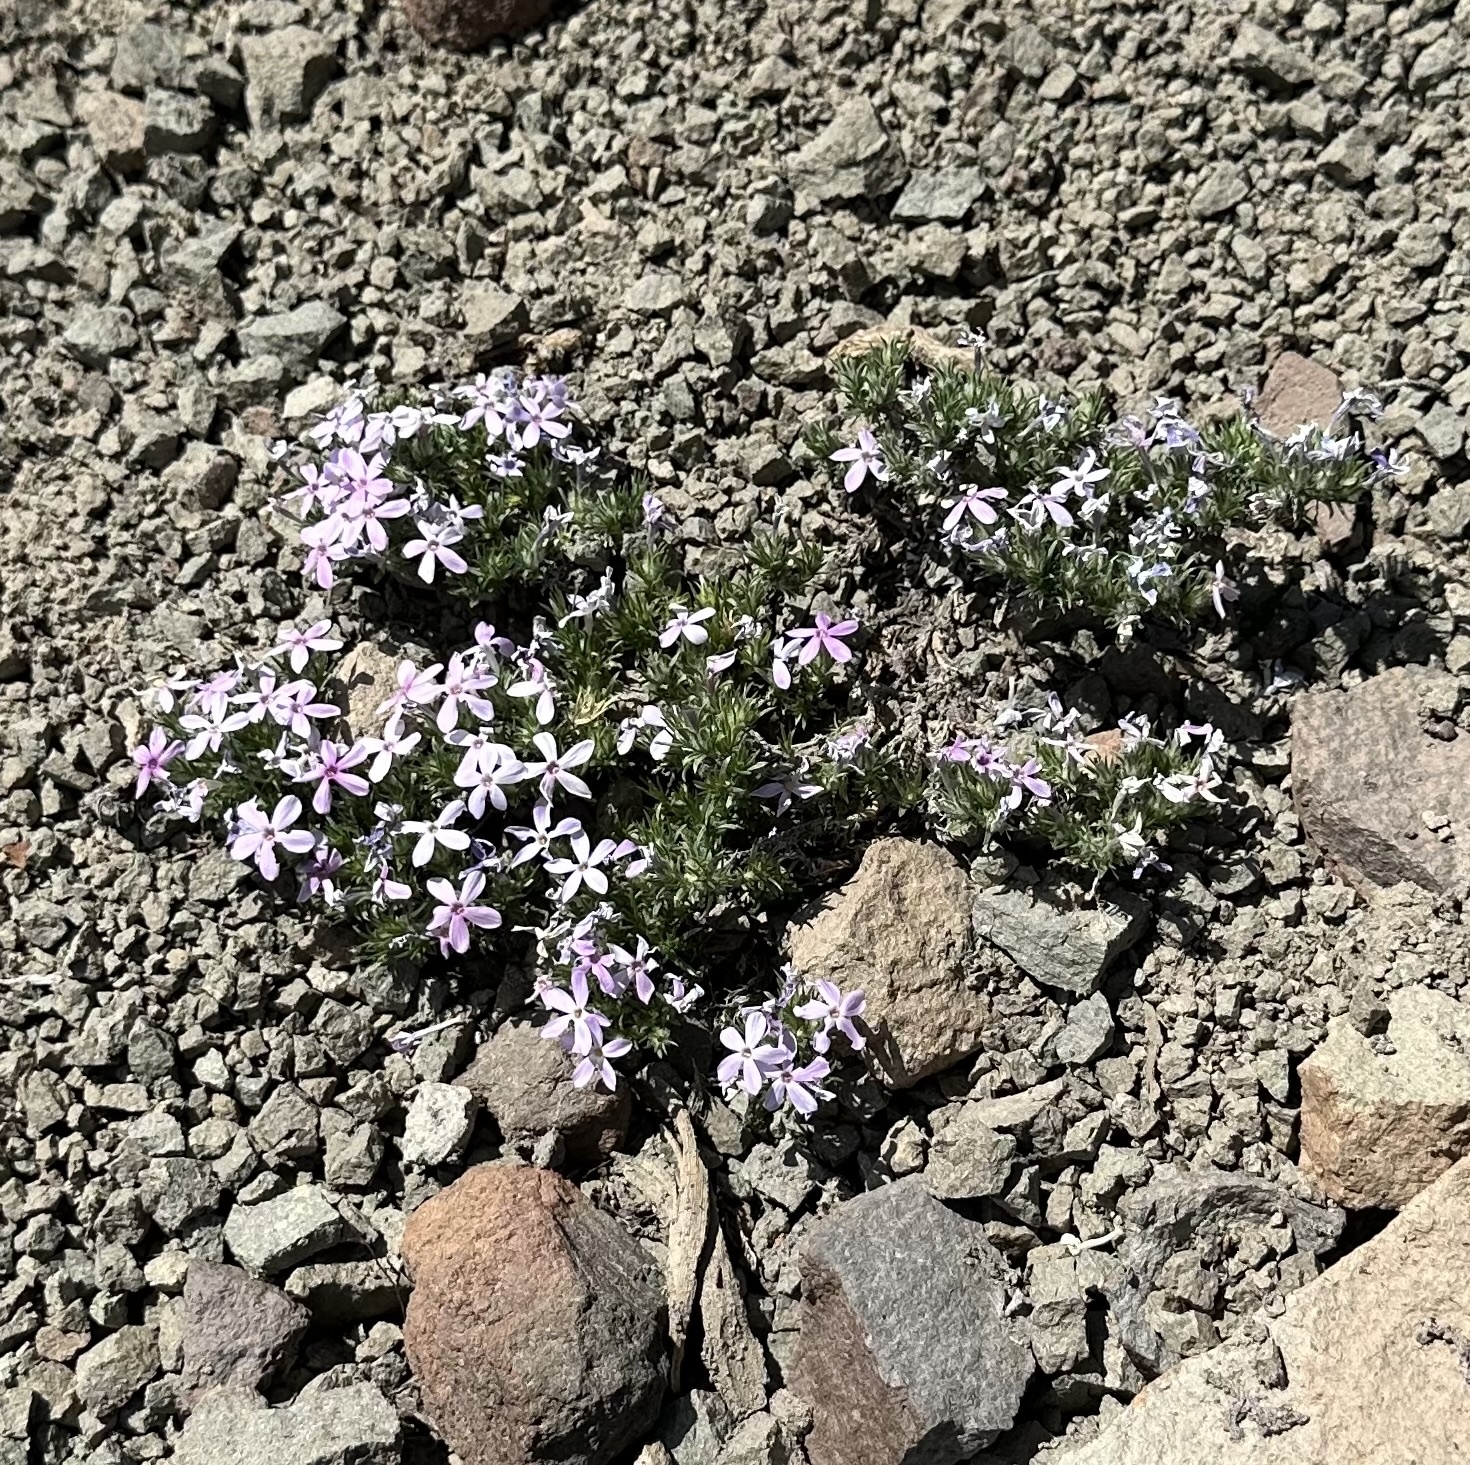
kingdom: Plantae
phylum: Tracheophyta
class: Magnoliopsida
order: Ericales
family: Polemoniaceae
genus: Phlox
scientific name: Phlox diffusa
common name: Mat phlox
